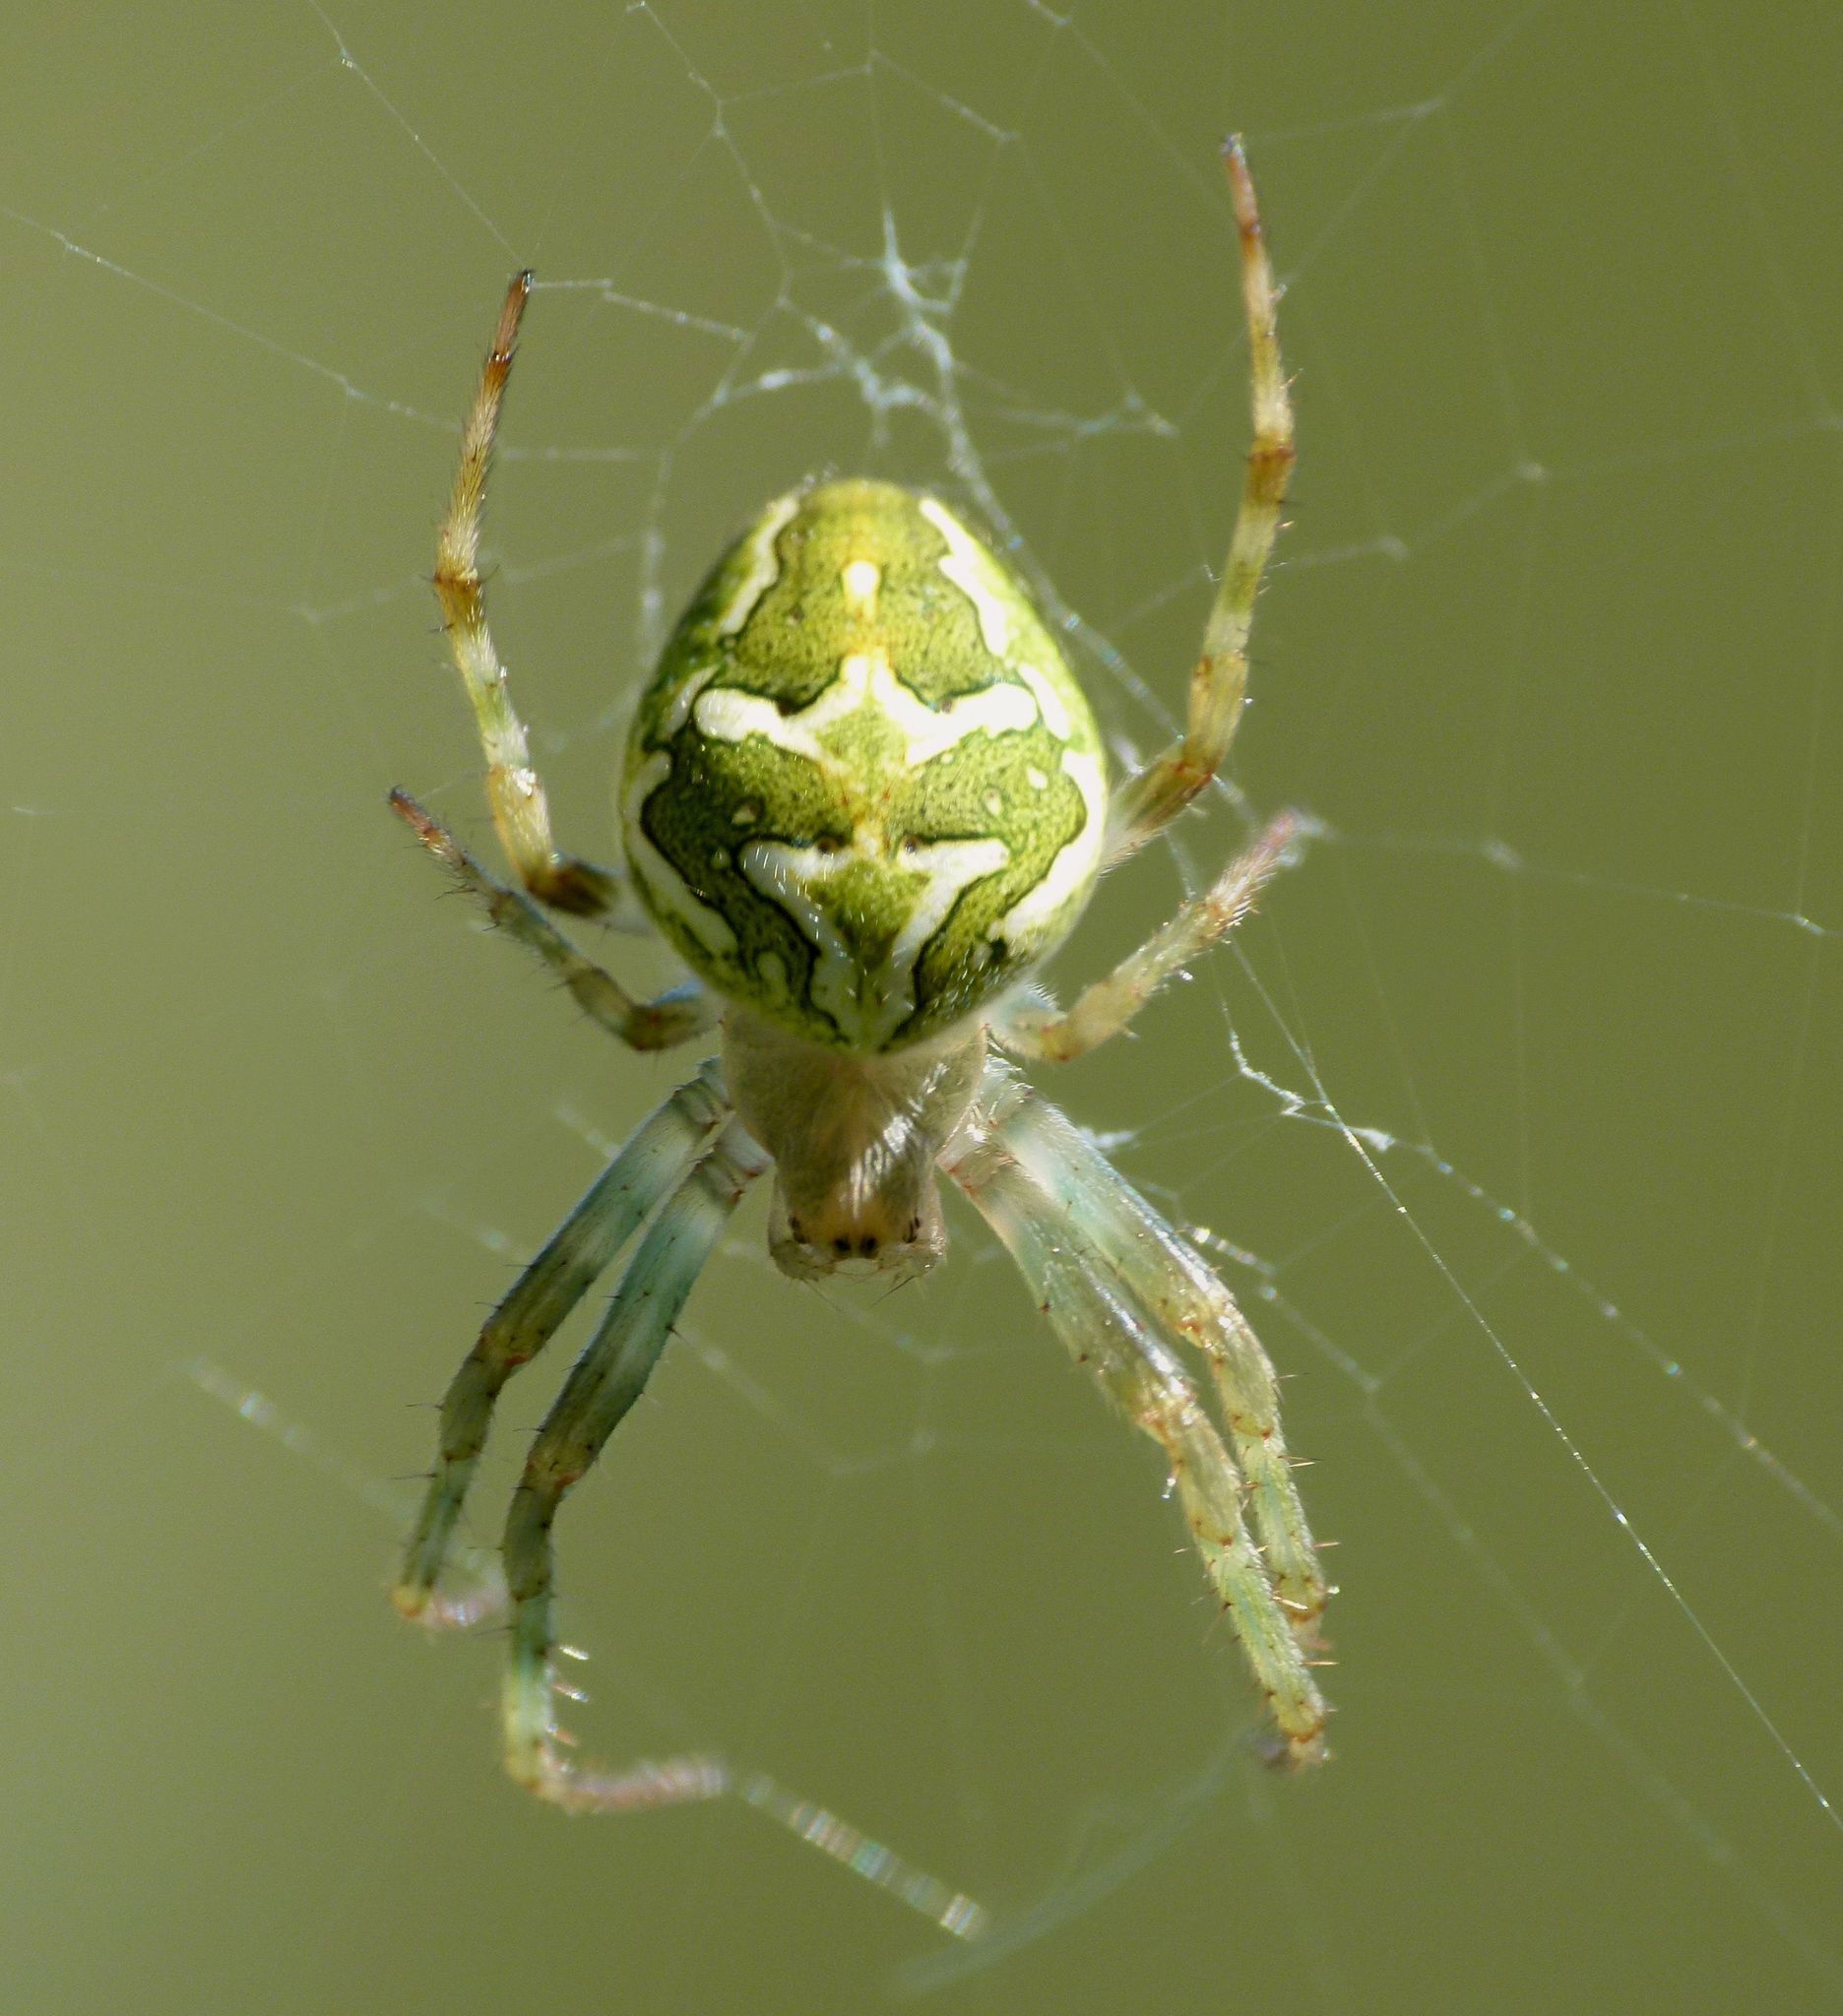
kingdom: Animalia
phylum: Arthropoda
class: Arachnida
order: Araneae
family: Araneidae
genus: Colaranea
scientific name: Colaranea verutum
